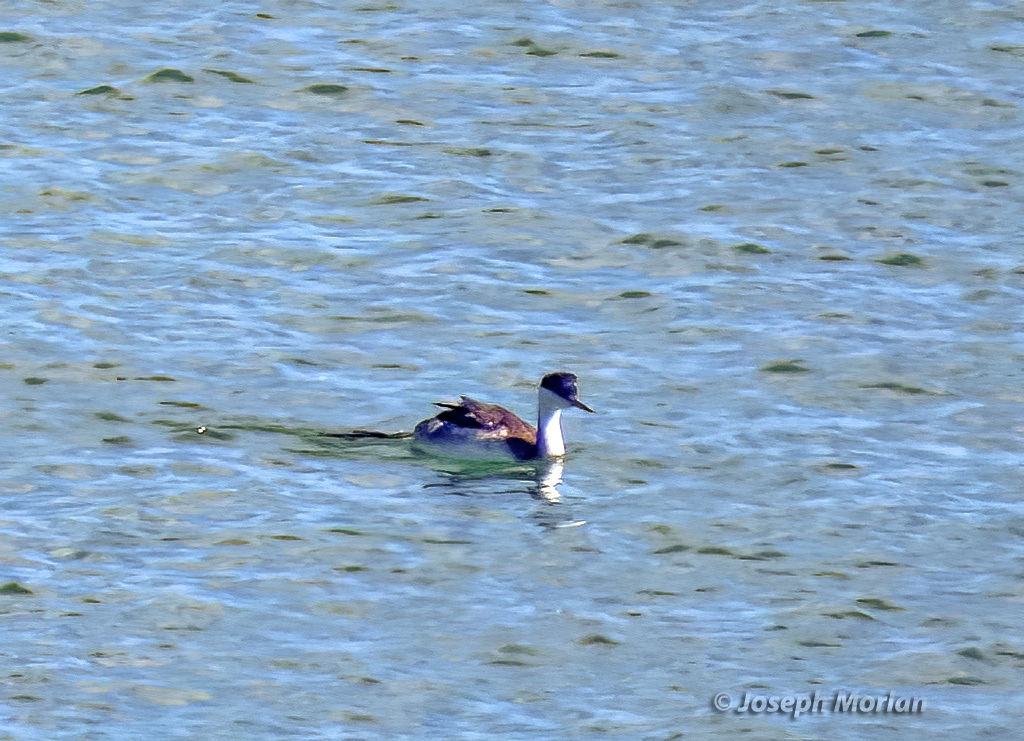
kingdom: Animalia
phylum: Chordata
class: Aves
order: Podicipediformes
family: Podicipedidae
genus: Aechmophorus
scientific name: Aechmophorus occidentalis
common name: Western grebe
